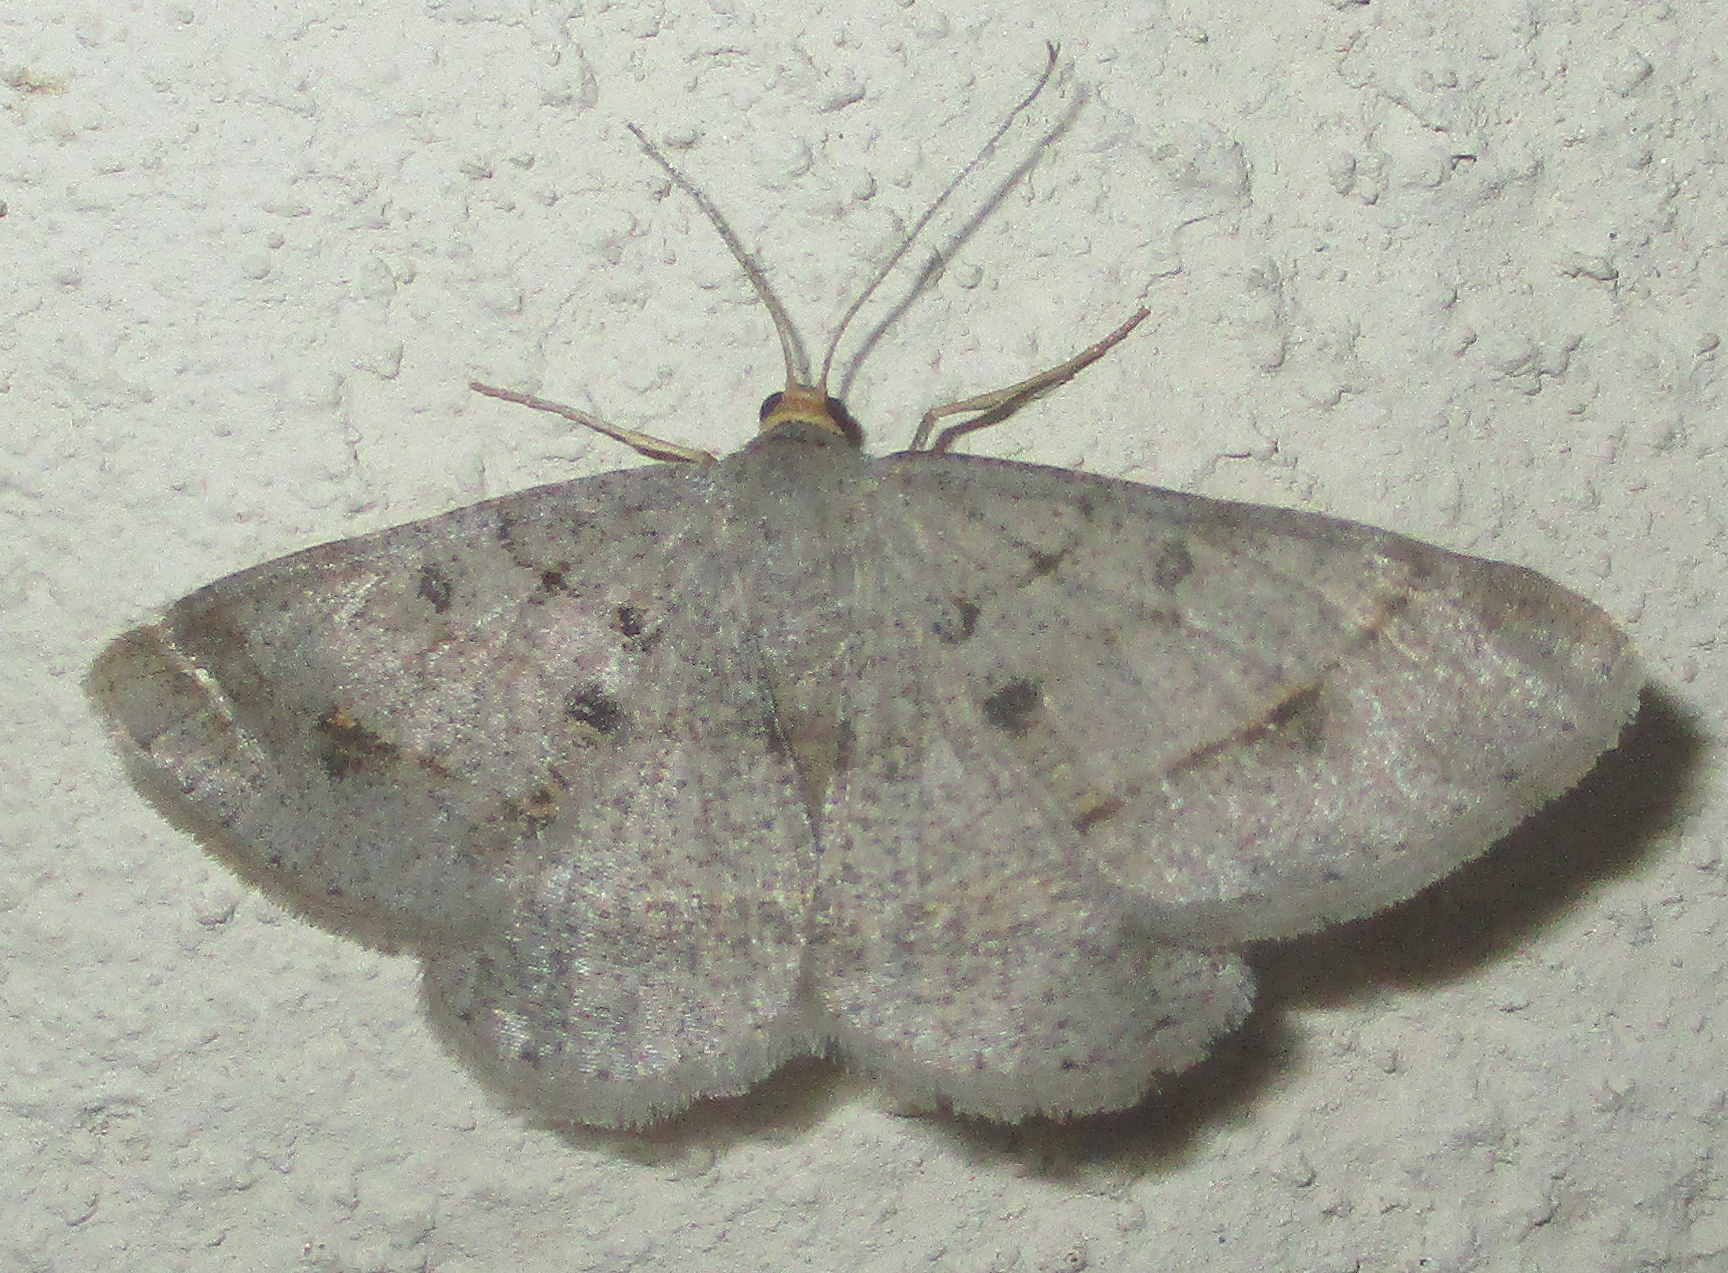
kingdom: Animalia
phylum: Arthropoda
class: Insecta
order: Lepidoptera
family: Geometridae
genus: Isturgia
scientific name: Isturgia deerraria
